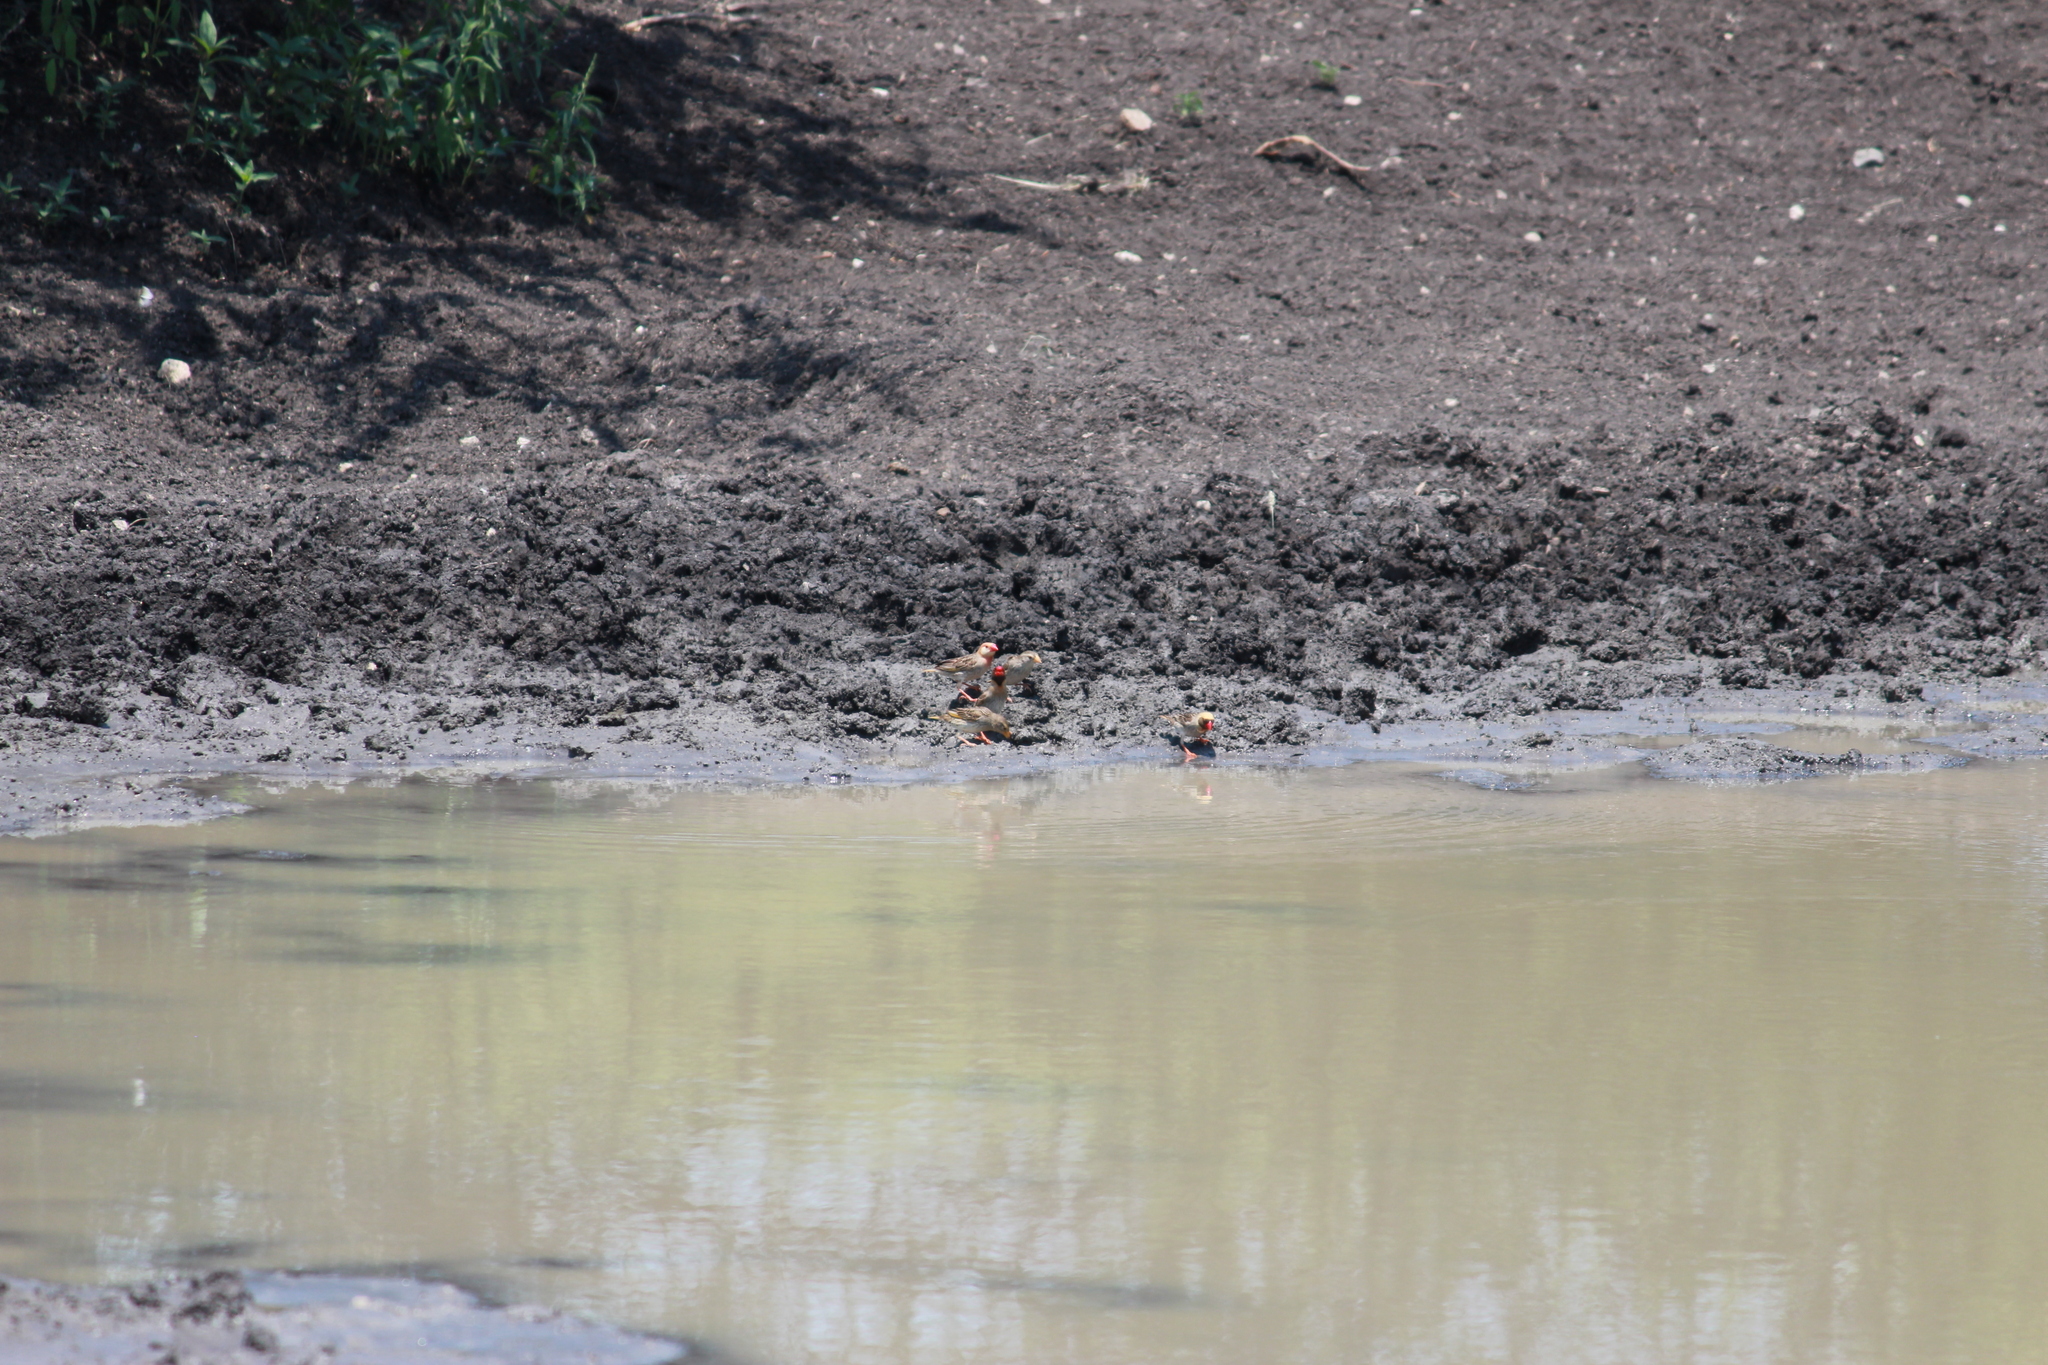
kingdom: Animalia
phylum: Chordata
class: Aves
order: Passeriformes
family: Ploceidae
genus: Quelea
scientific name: Quelea quelea
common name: Red-billed quelea
